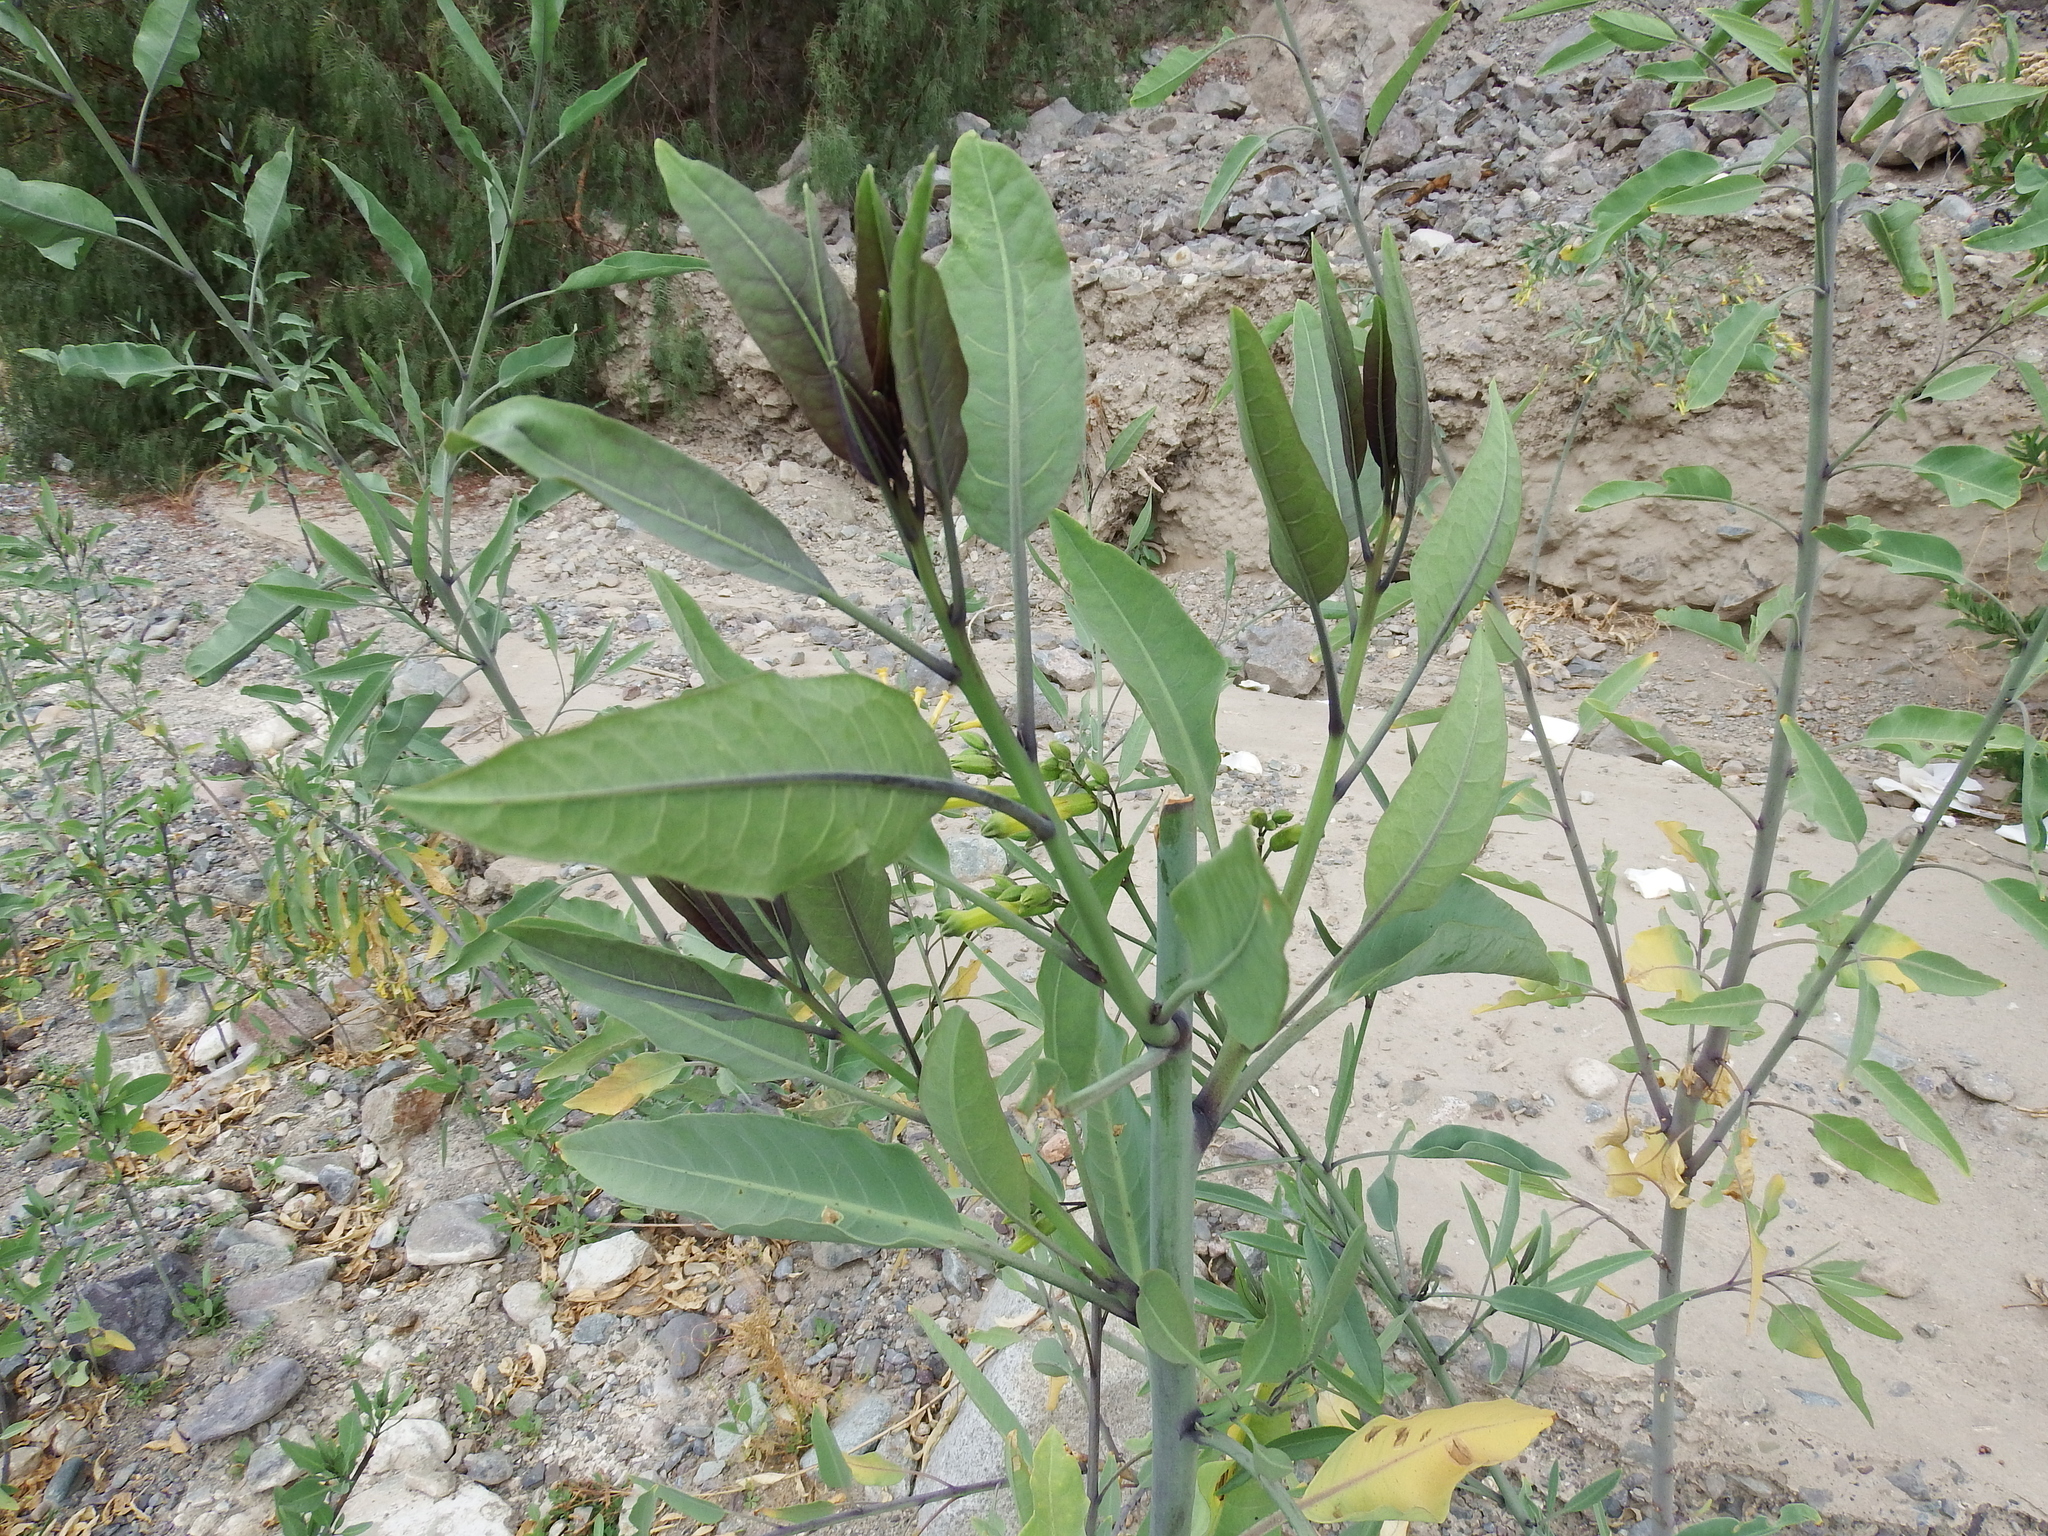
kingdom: Plantae
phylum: Tracheophyta
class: Magnoliopsida
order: Solanales
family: Solanaceae
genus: Nicotiana
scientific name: Nicotiana glauca
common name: Tree tobacco
